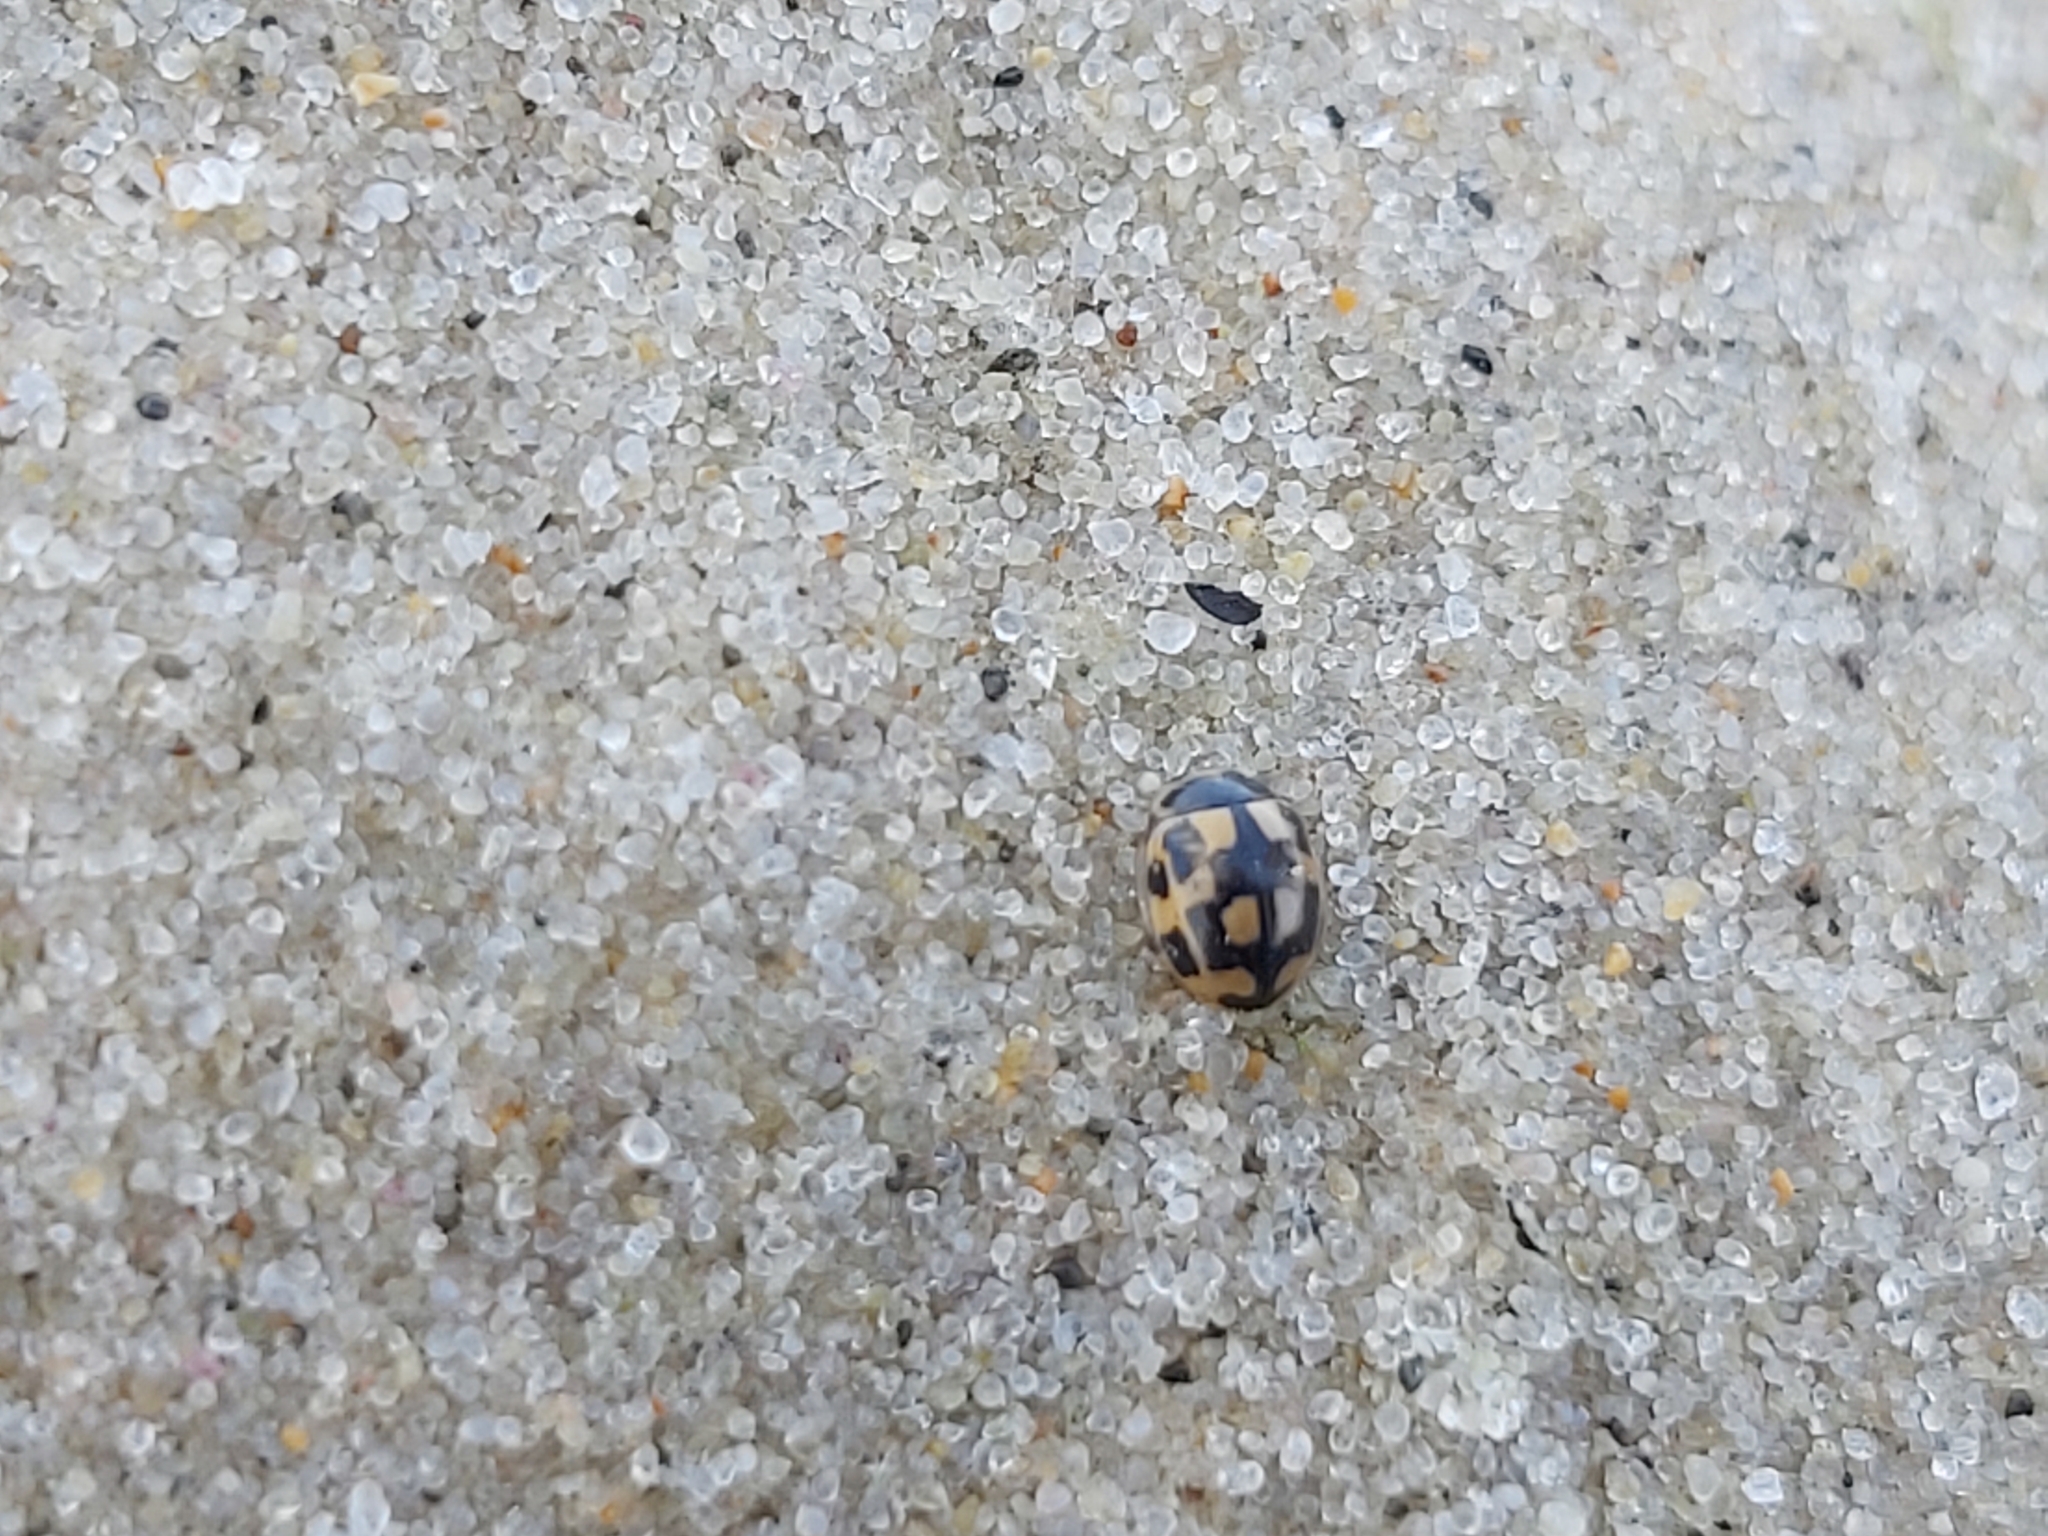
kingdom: Animalia
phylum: Arthropoda
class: Insecta
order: Coleoptera
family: Coccinellidae
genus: Propylaea
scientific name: Propylaea quatuordecimpunctata
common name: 14-spotted ladybird beetle
